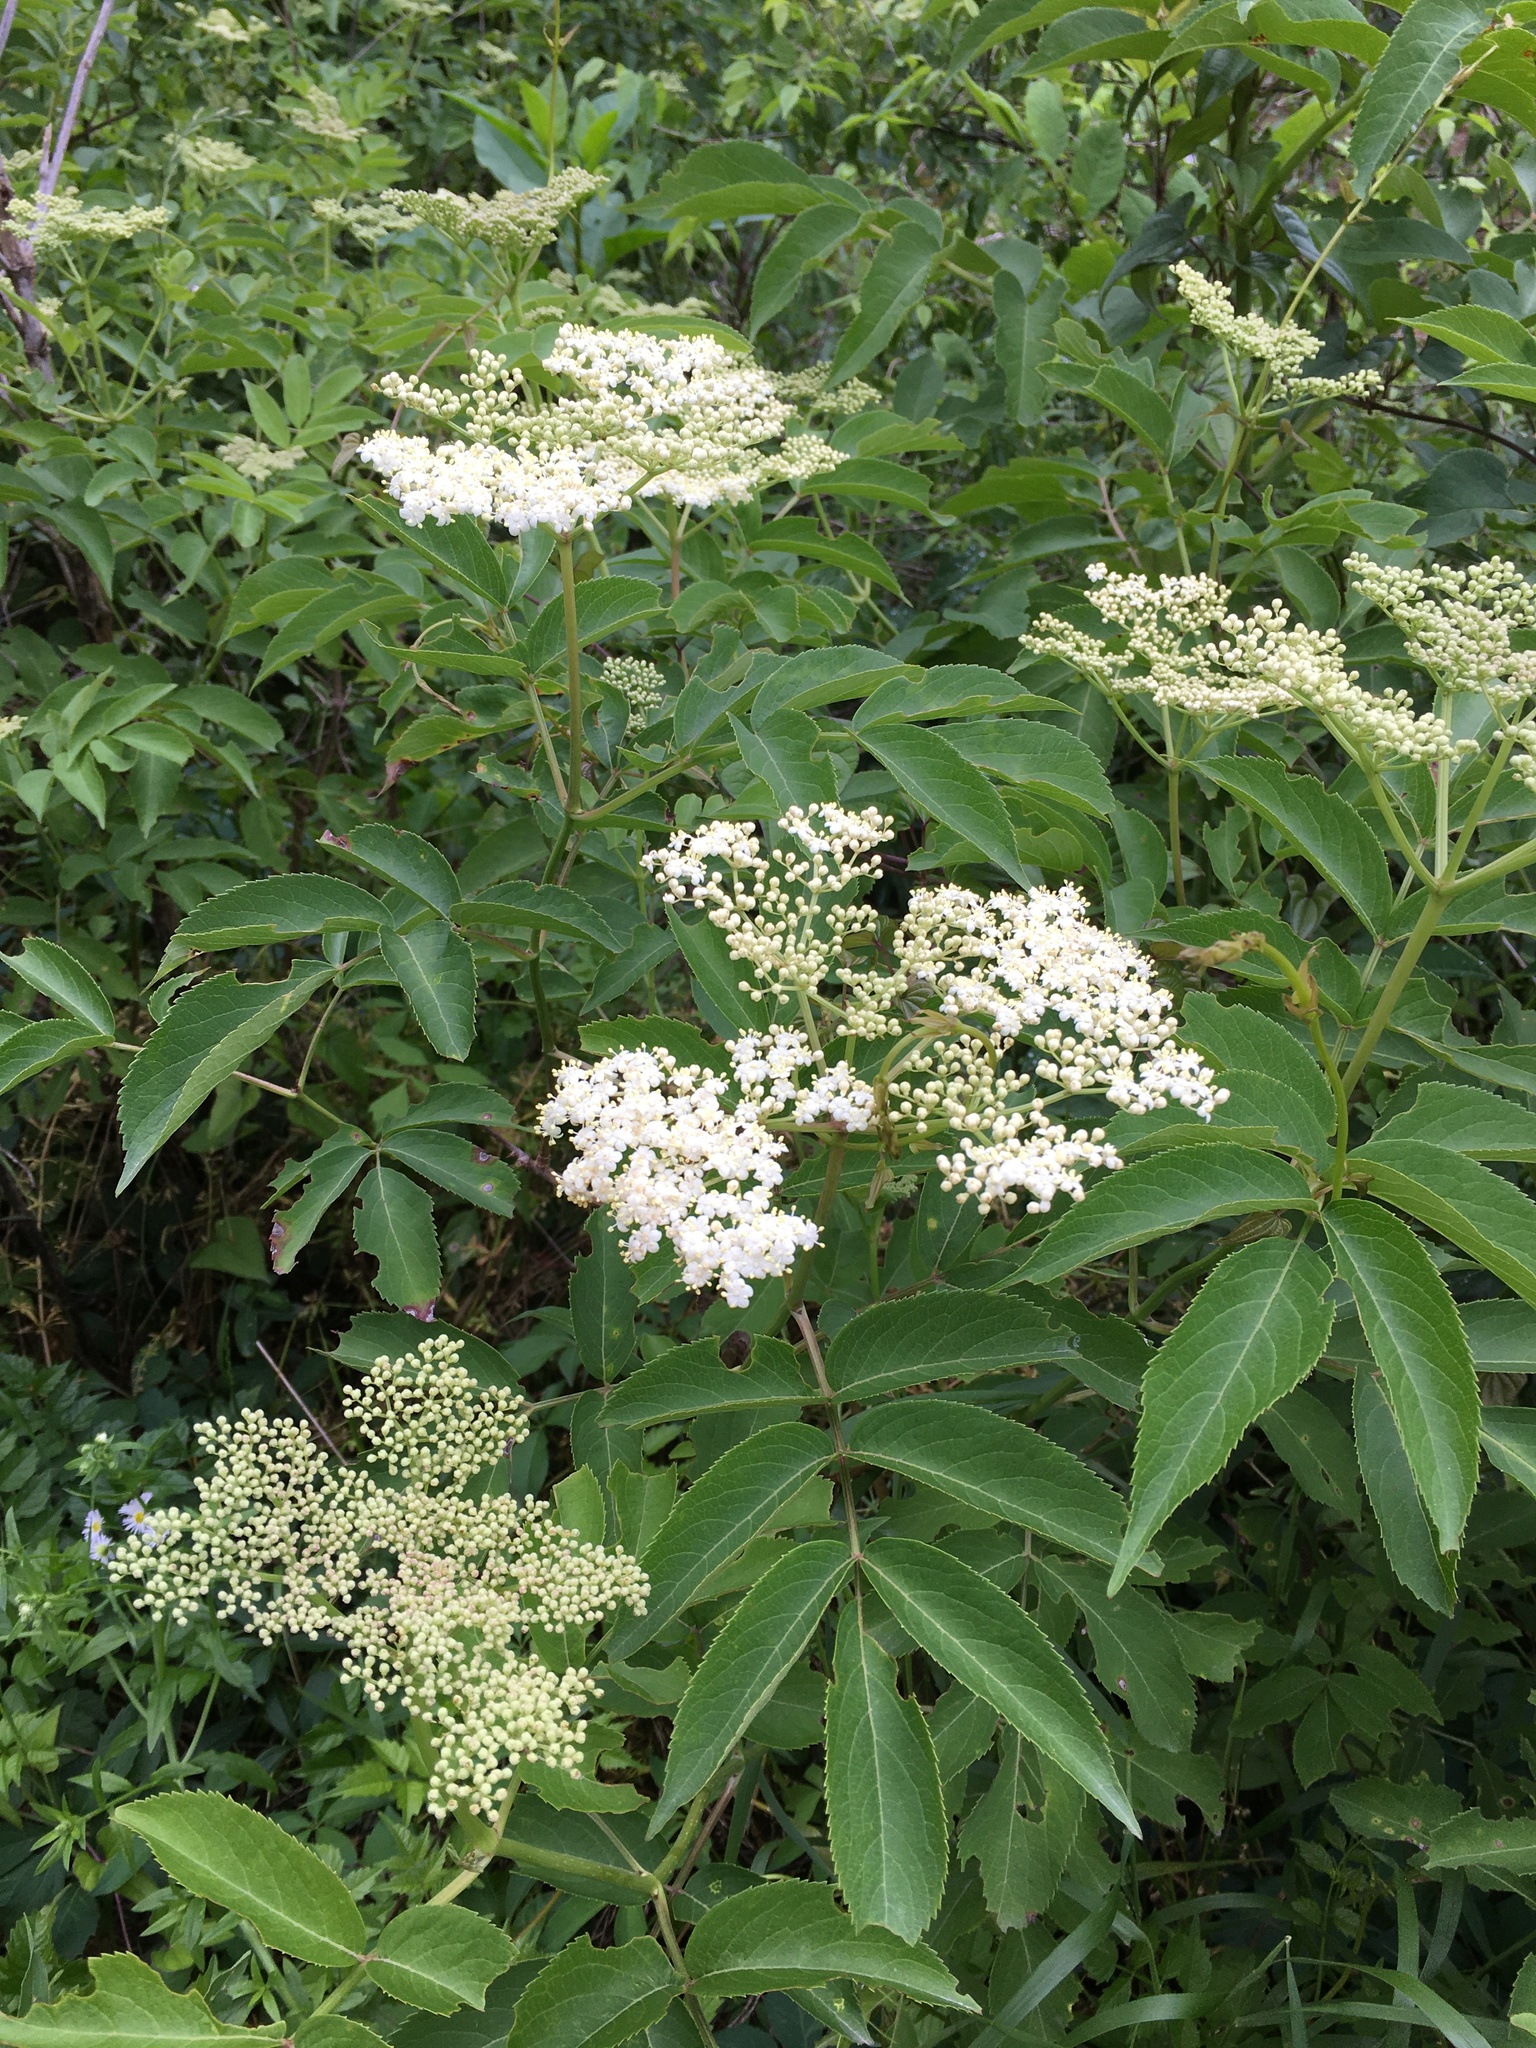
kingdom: Plantae
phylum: Tracheophyta
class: Magnoliopsida
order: Dipsacales
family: Viburnaceae
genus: Sambucus
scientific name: Sambucus canadensis
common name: American elder
